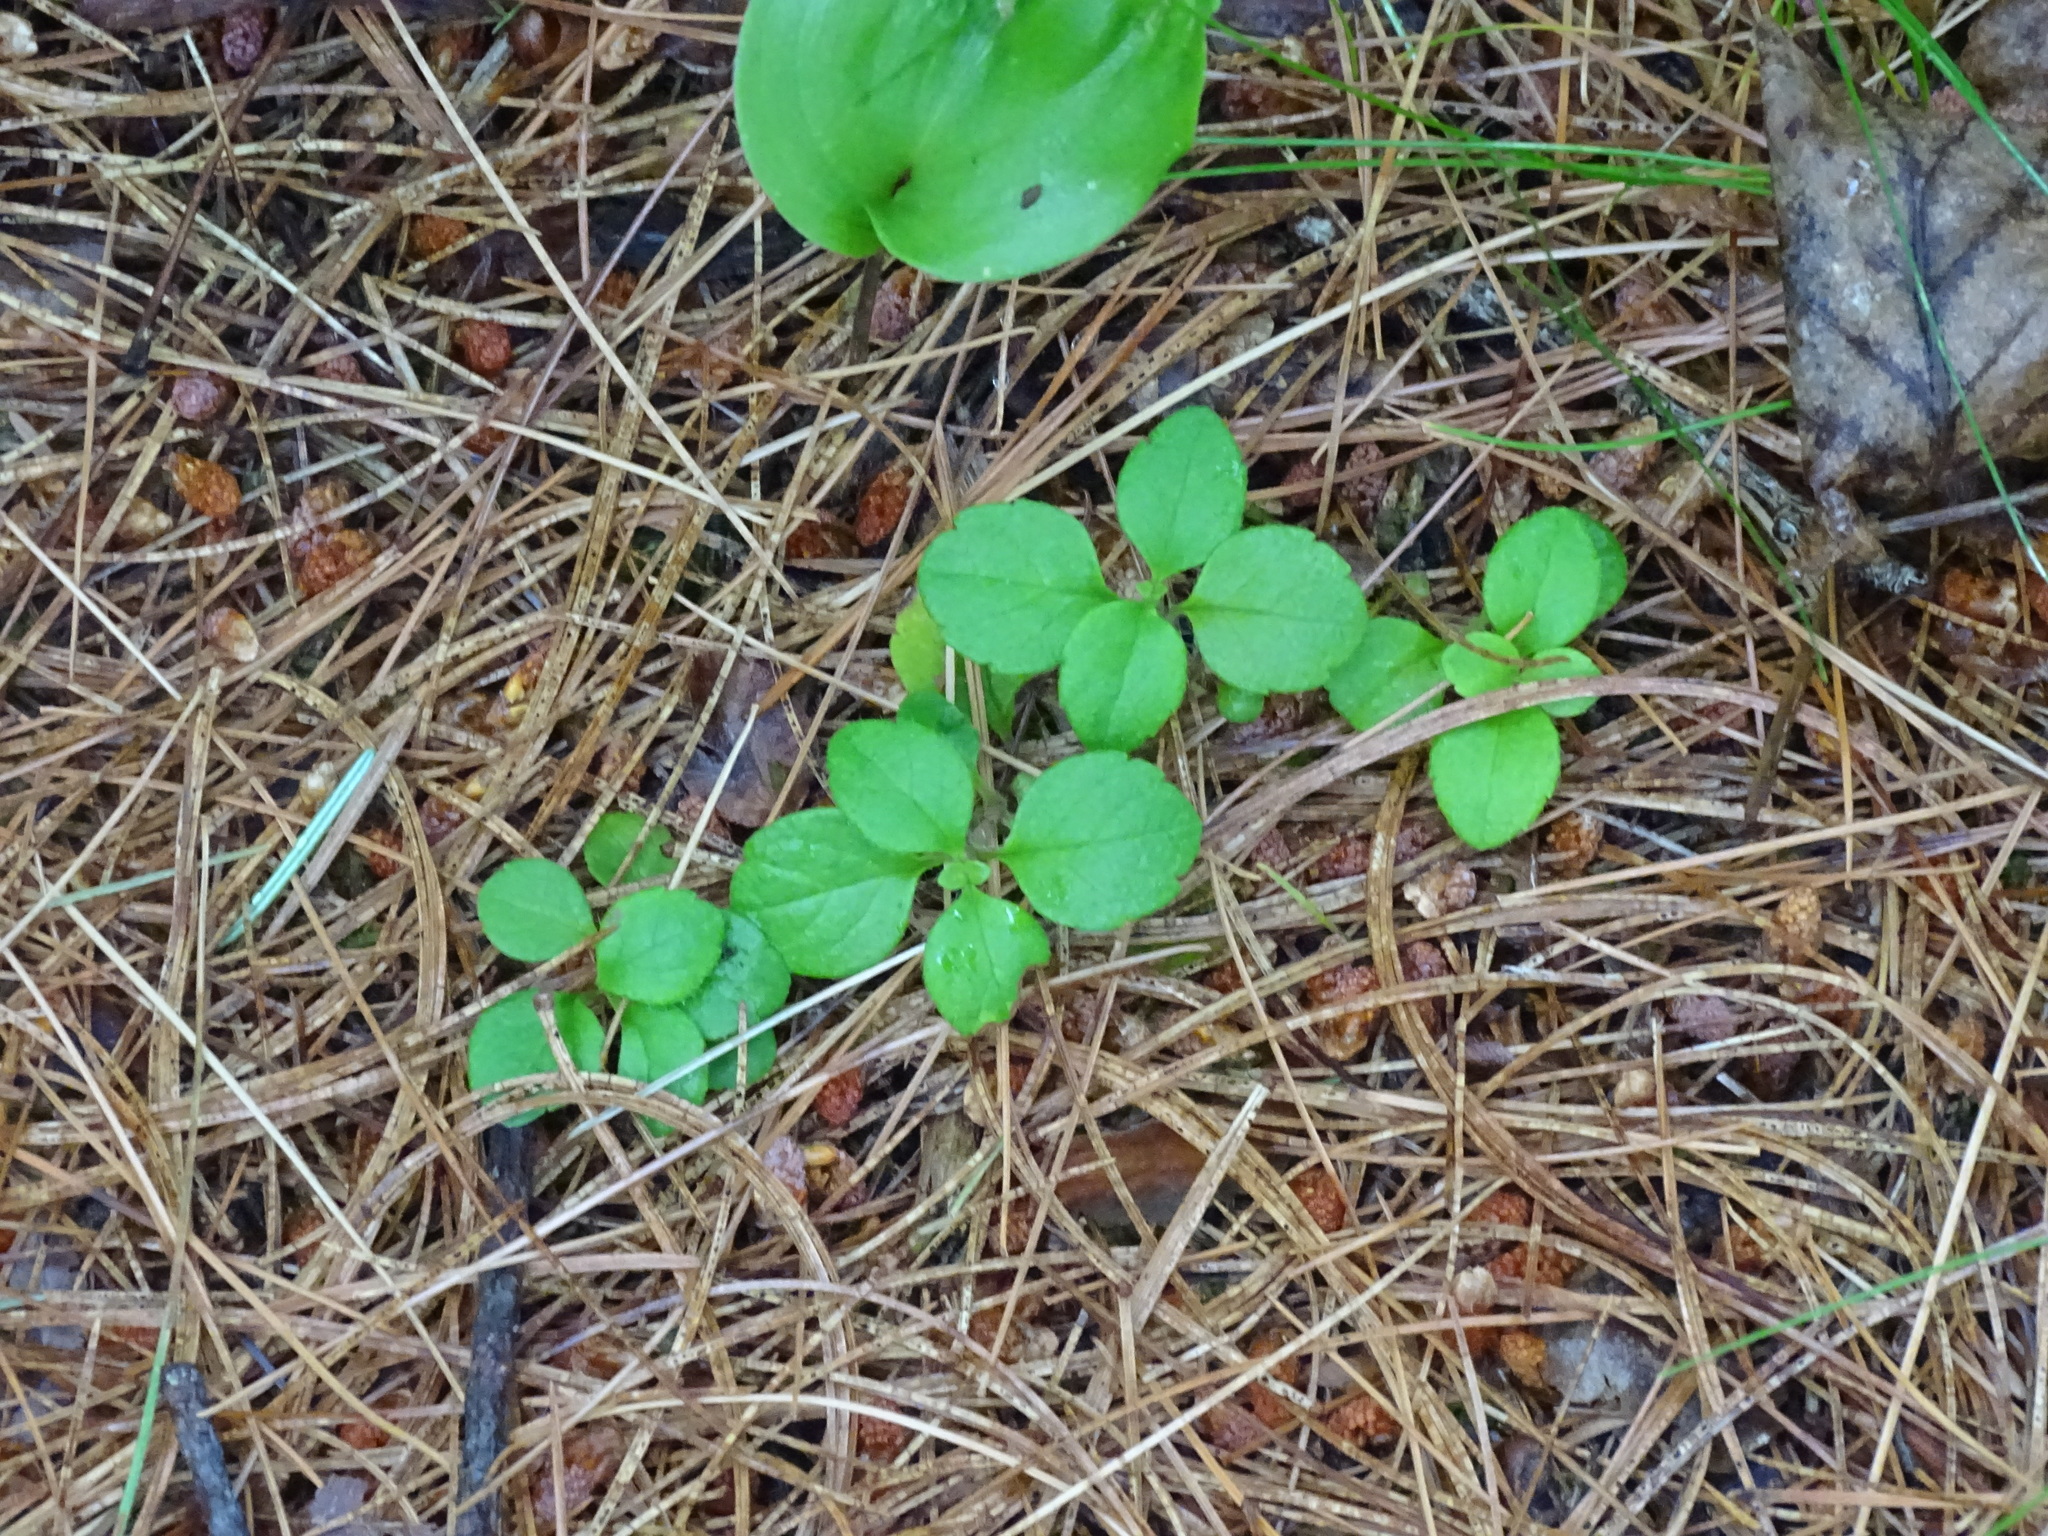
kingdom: Plantae
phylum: Tracheophyta
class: Magnoliopsida
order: Dipsacales
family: Caprifoliaceae
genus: Linnaea
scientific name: Linnaea borealis
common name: Twinflower
